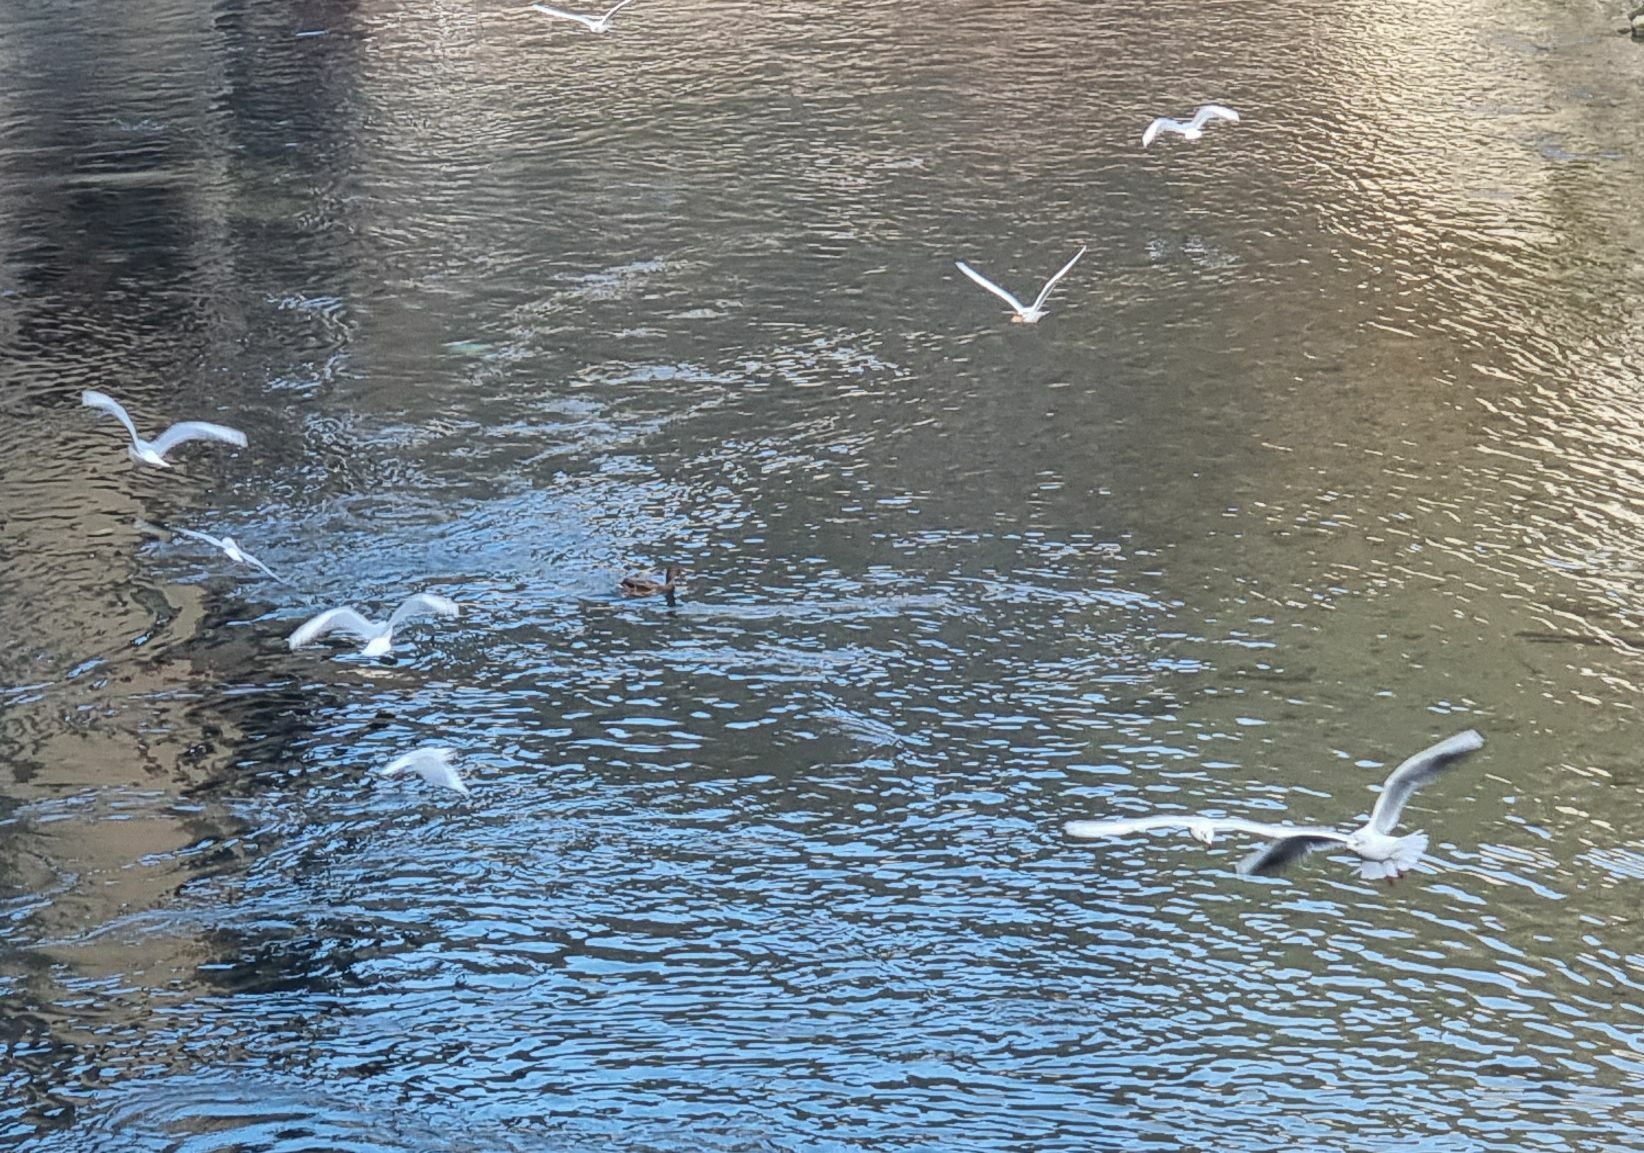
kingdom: Animalia
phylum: Chordata
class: Aves
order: Charadriiformes
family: Laridae
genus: Chroicocephalus
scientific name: Chroicocephalus ridibundus
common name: Black-headed gull
